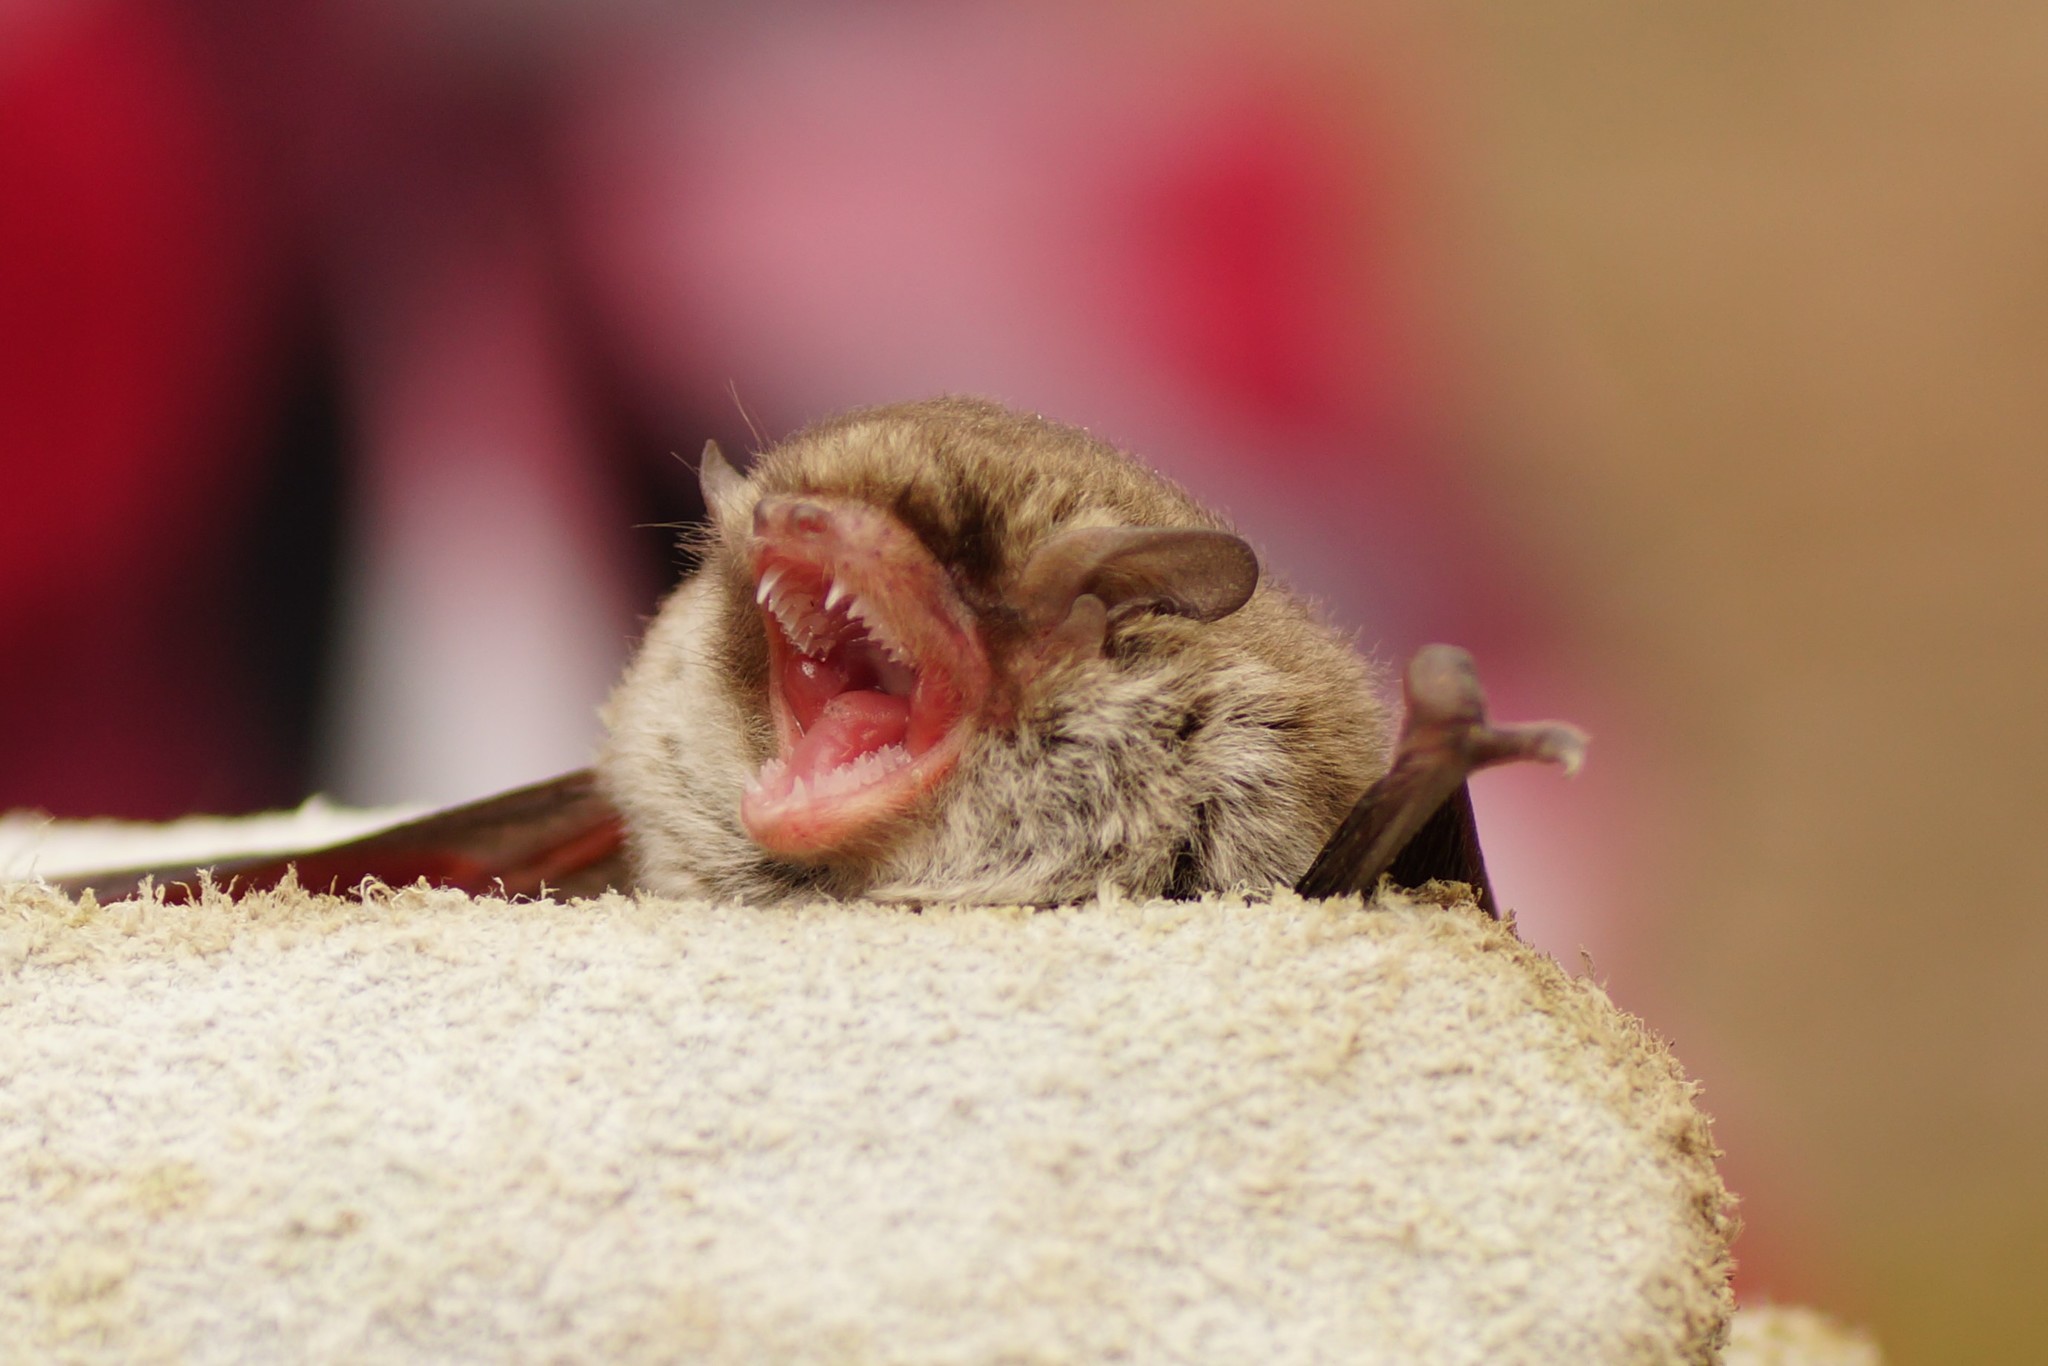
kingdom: Animalia
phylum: Chordata
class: Mammalia
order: Chiroptera
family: Vespertilionidae
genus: Vespadelus
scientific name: Vespadelus vulturnus
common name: Little forest bat
